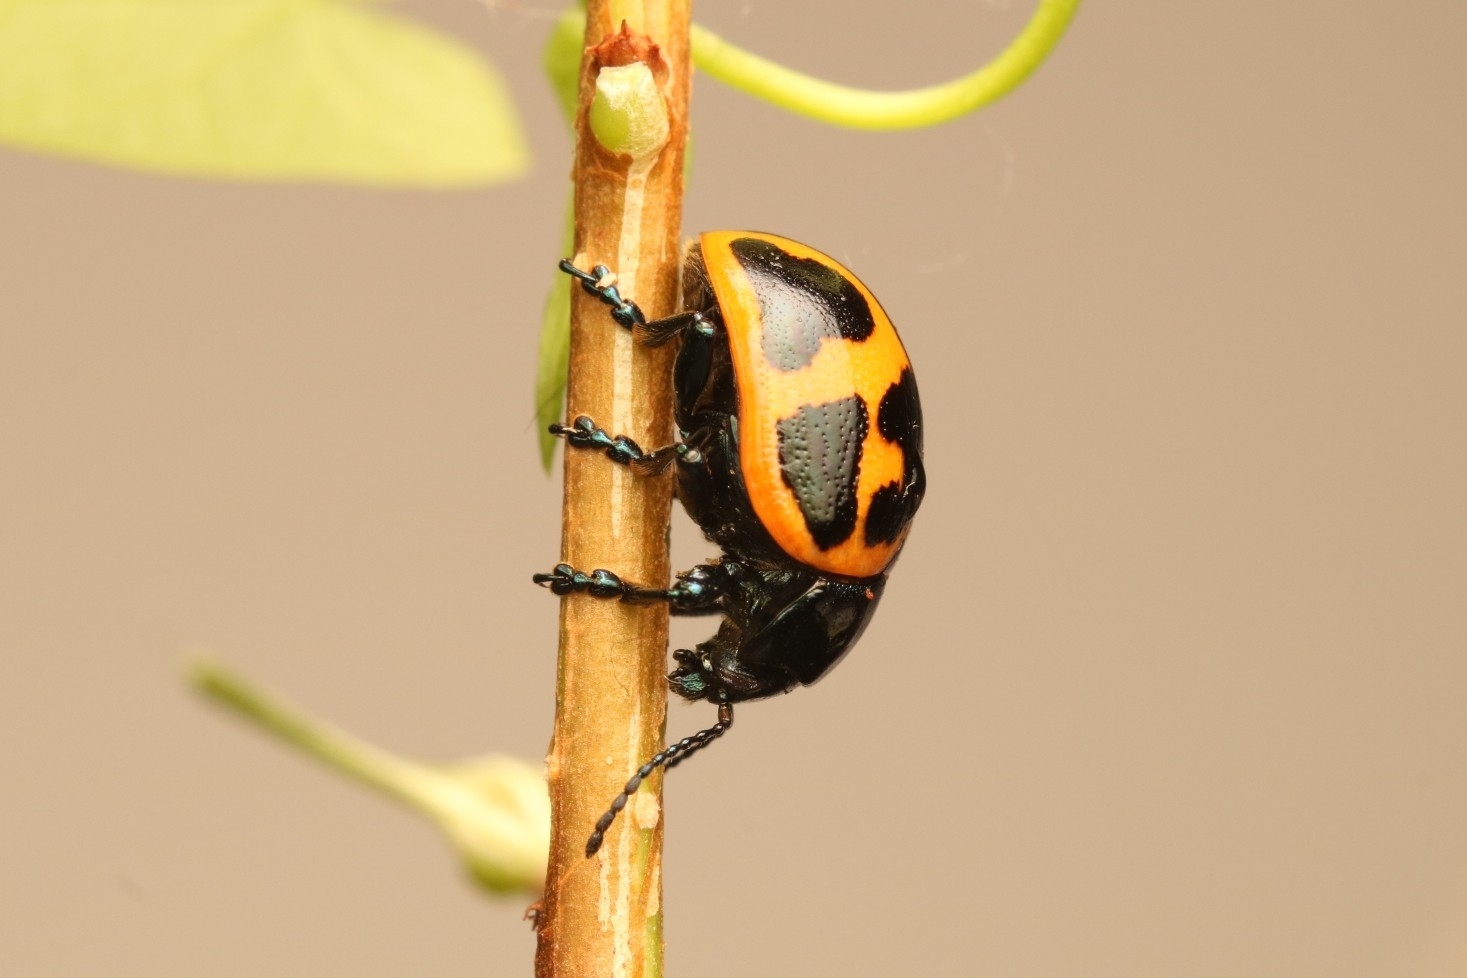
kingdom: Animalia
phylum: Arthropoda
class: Insecta
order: Coleoptera
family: Chrysomelidae
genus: Labidomera
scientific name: Labidomera clivicollis
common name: Swamp milkweed leaf beetle
